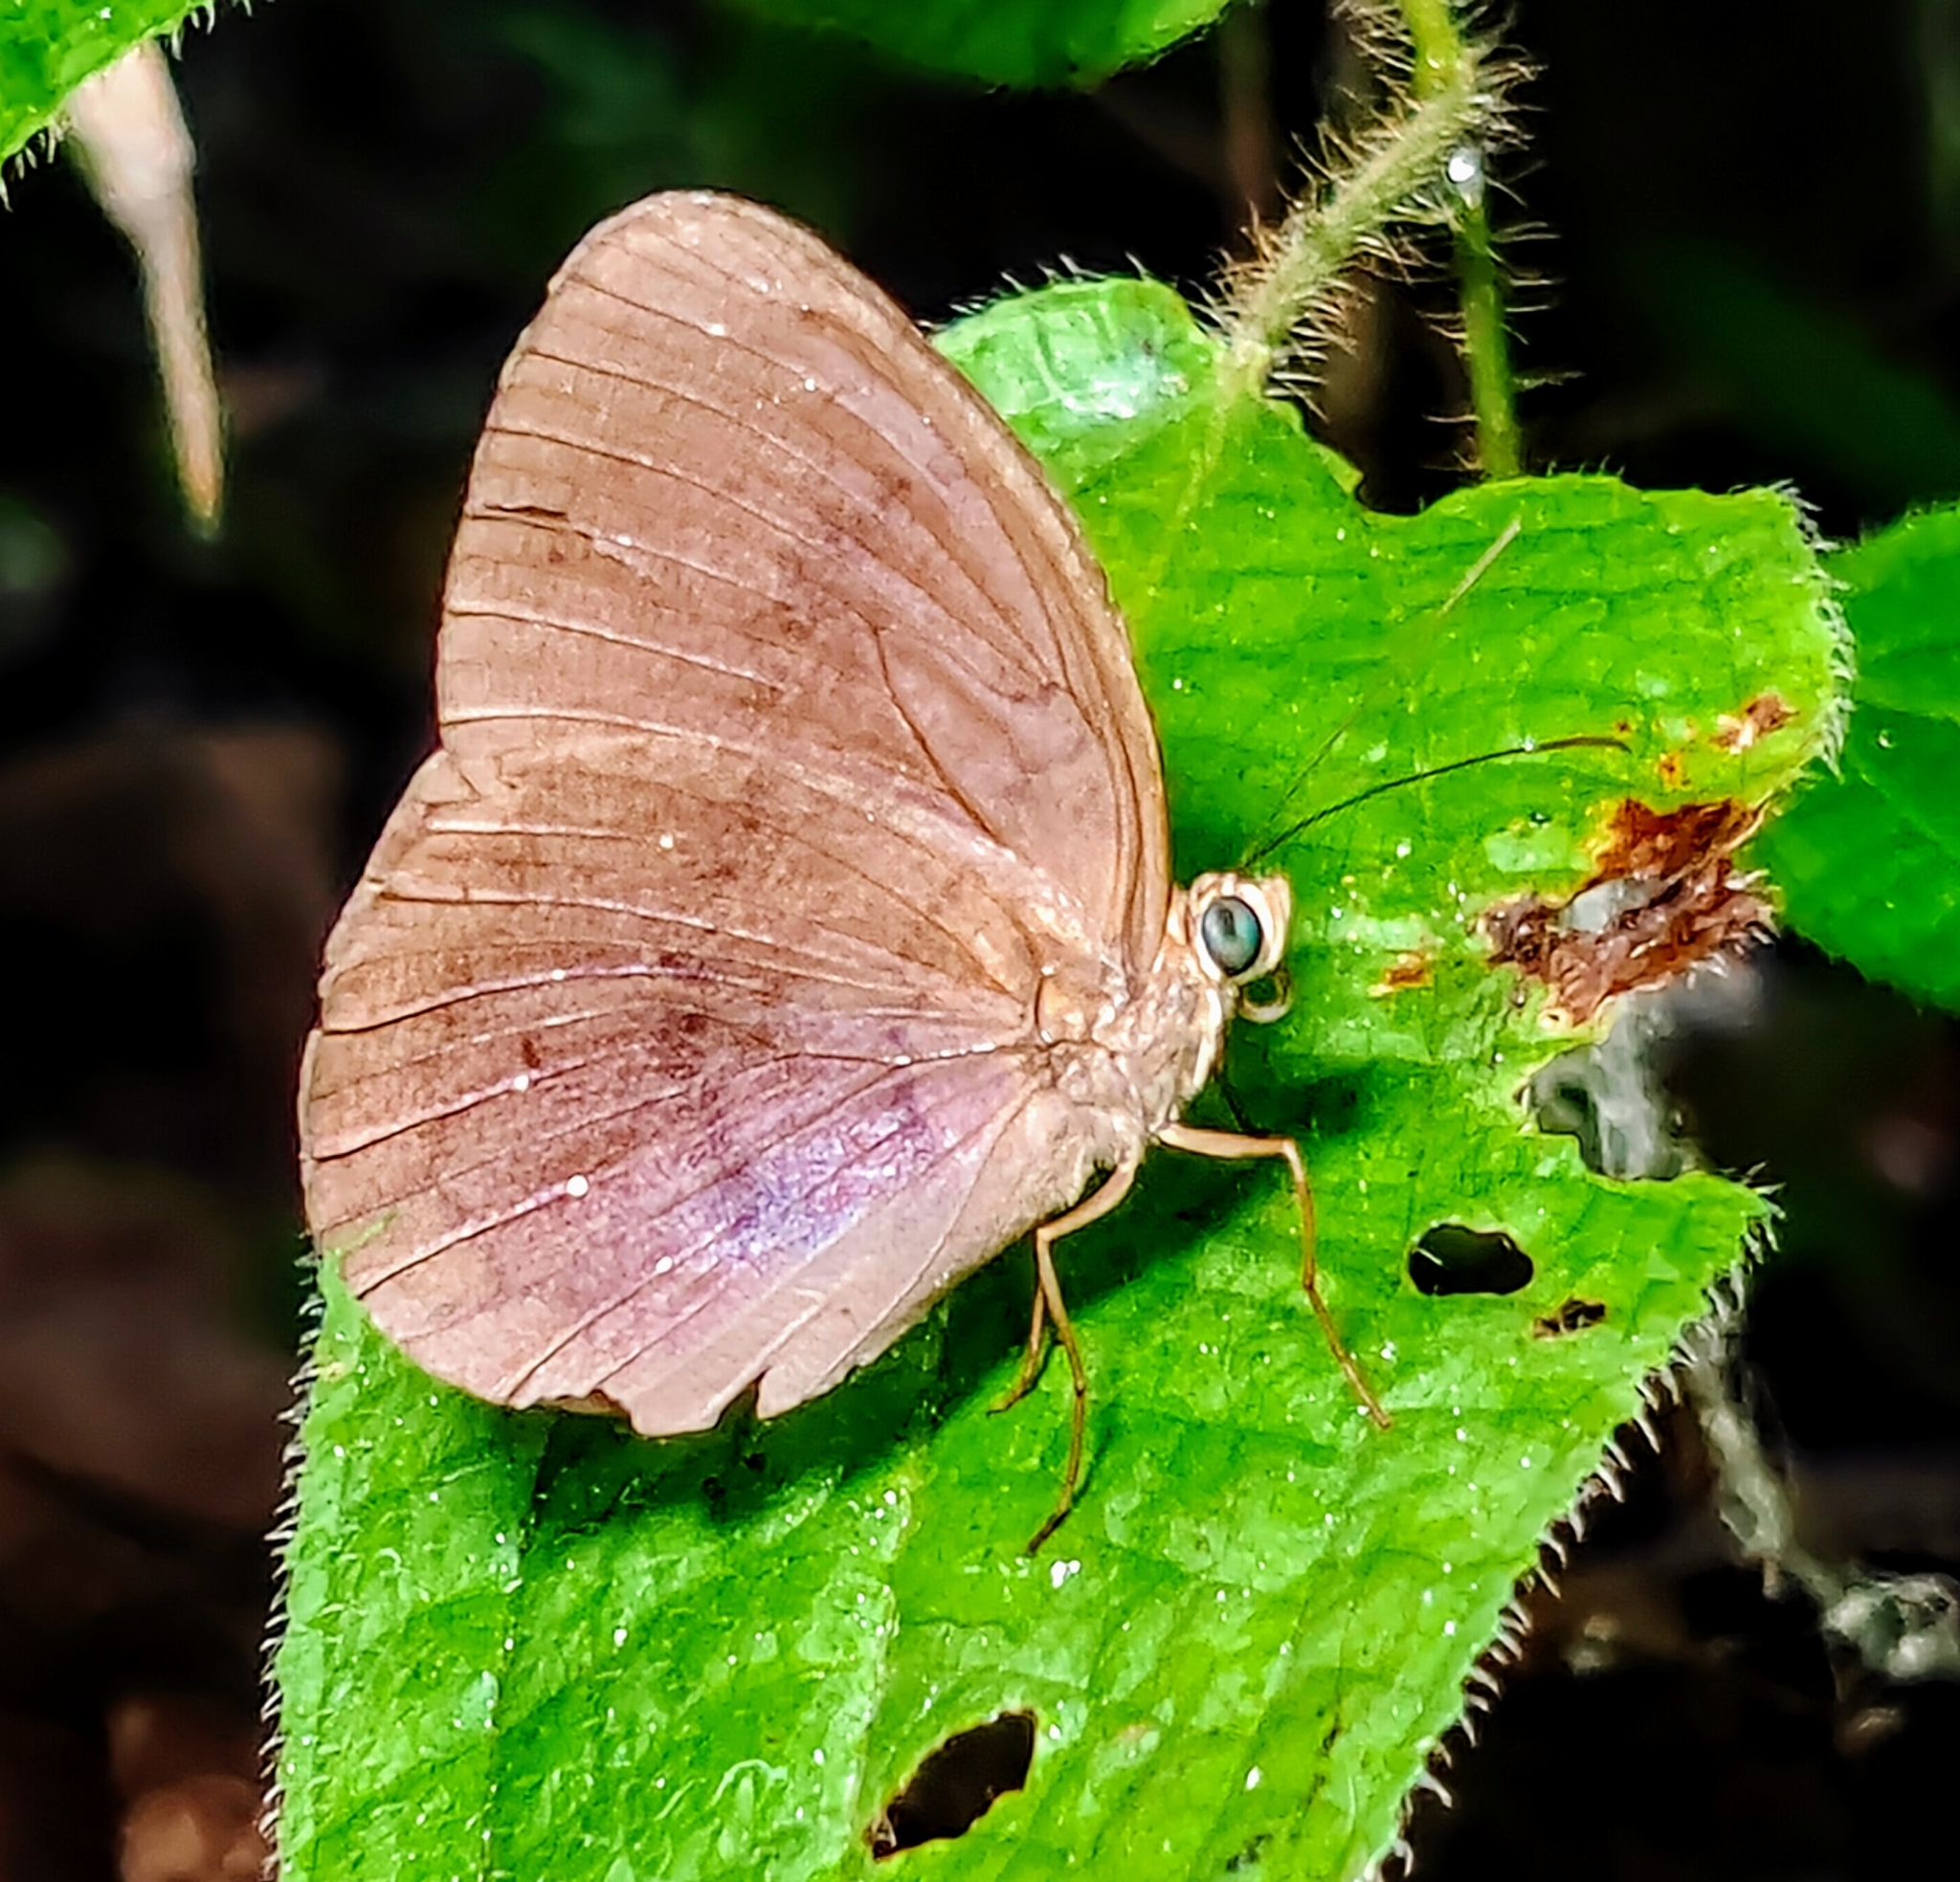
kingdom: Animalia
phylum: Arthropoda
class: Insecta
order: Lepidoptera
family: Nymphalidae
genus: Faunis
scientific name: Faunis canens
